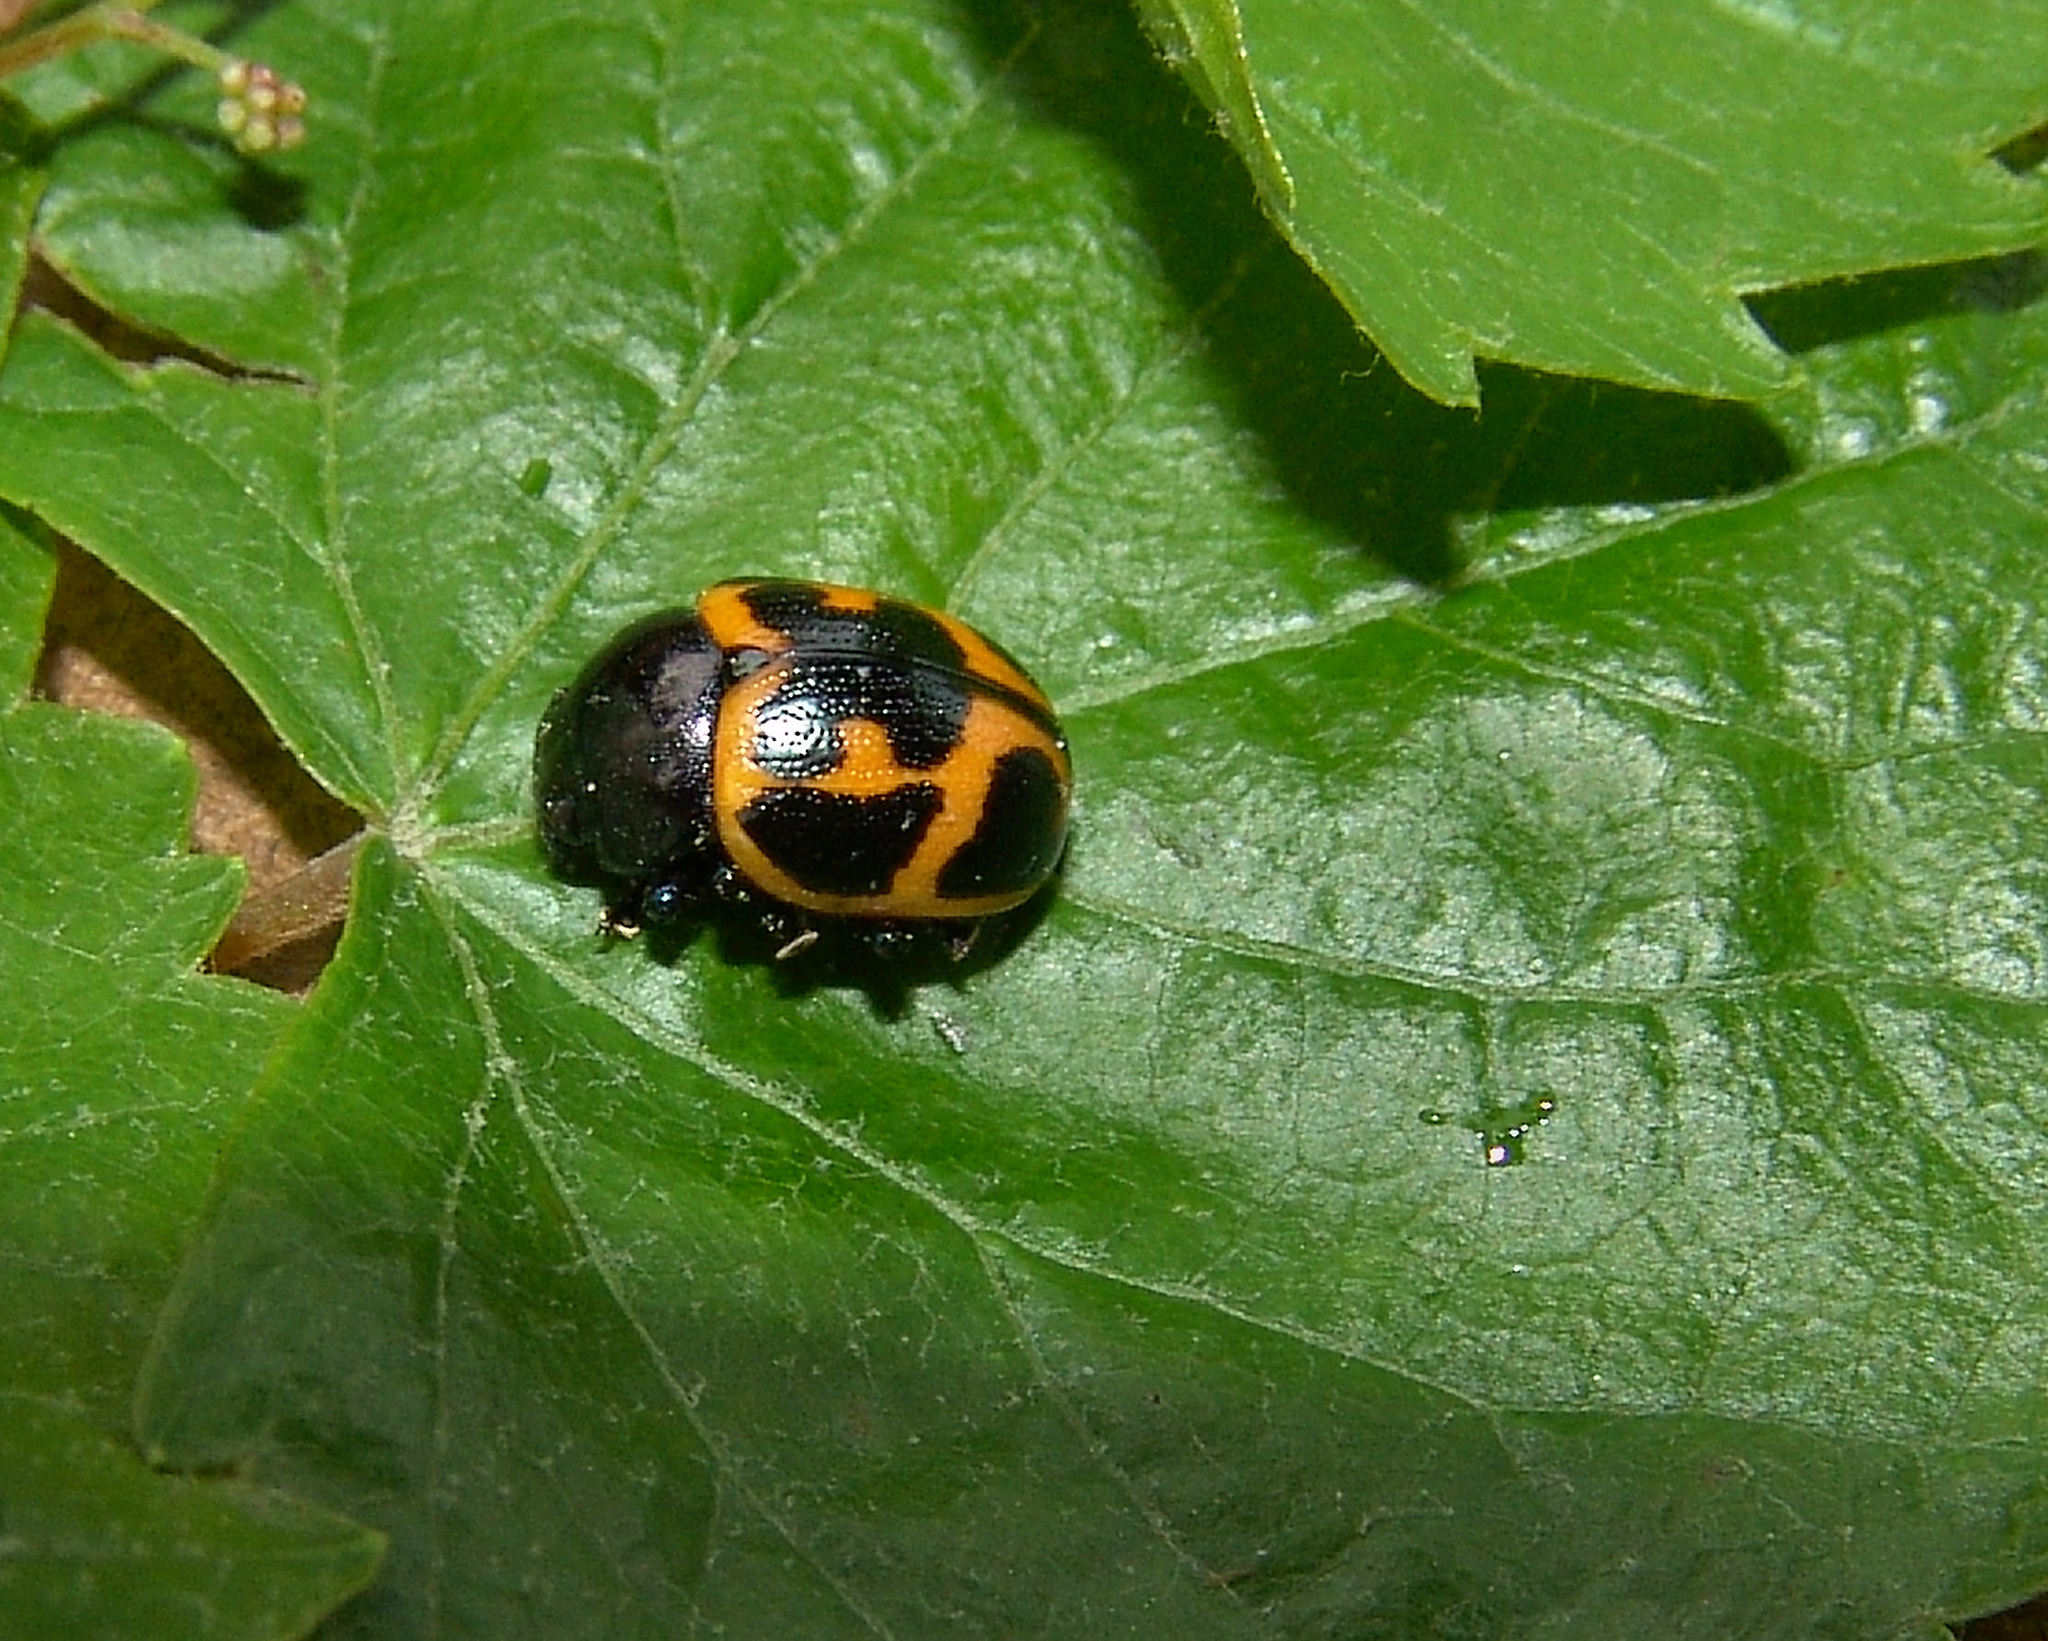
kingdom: Animalia
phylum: Arthropoda
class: Insecta
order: Coleoptera
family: Chrysomelidae
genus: Labidomera
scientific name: Labidomera clivicollis
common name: Swamp milkweed leaf beetle
